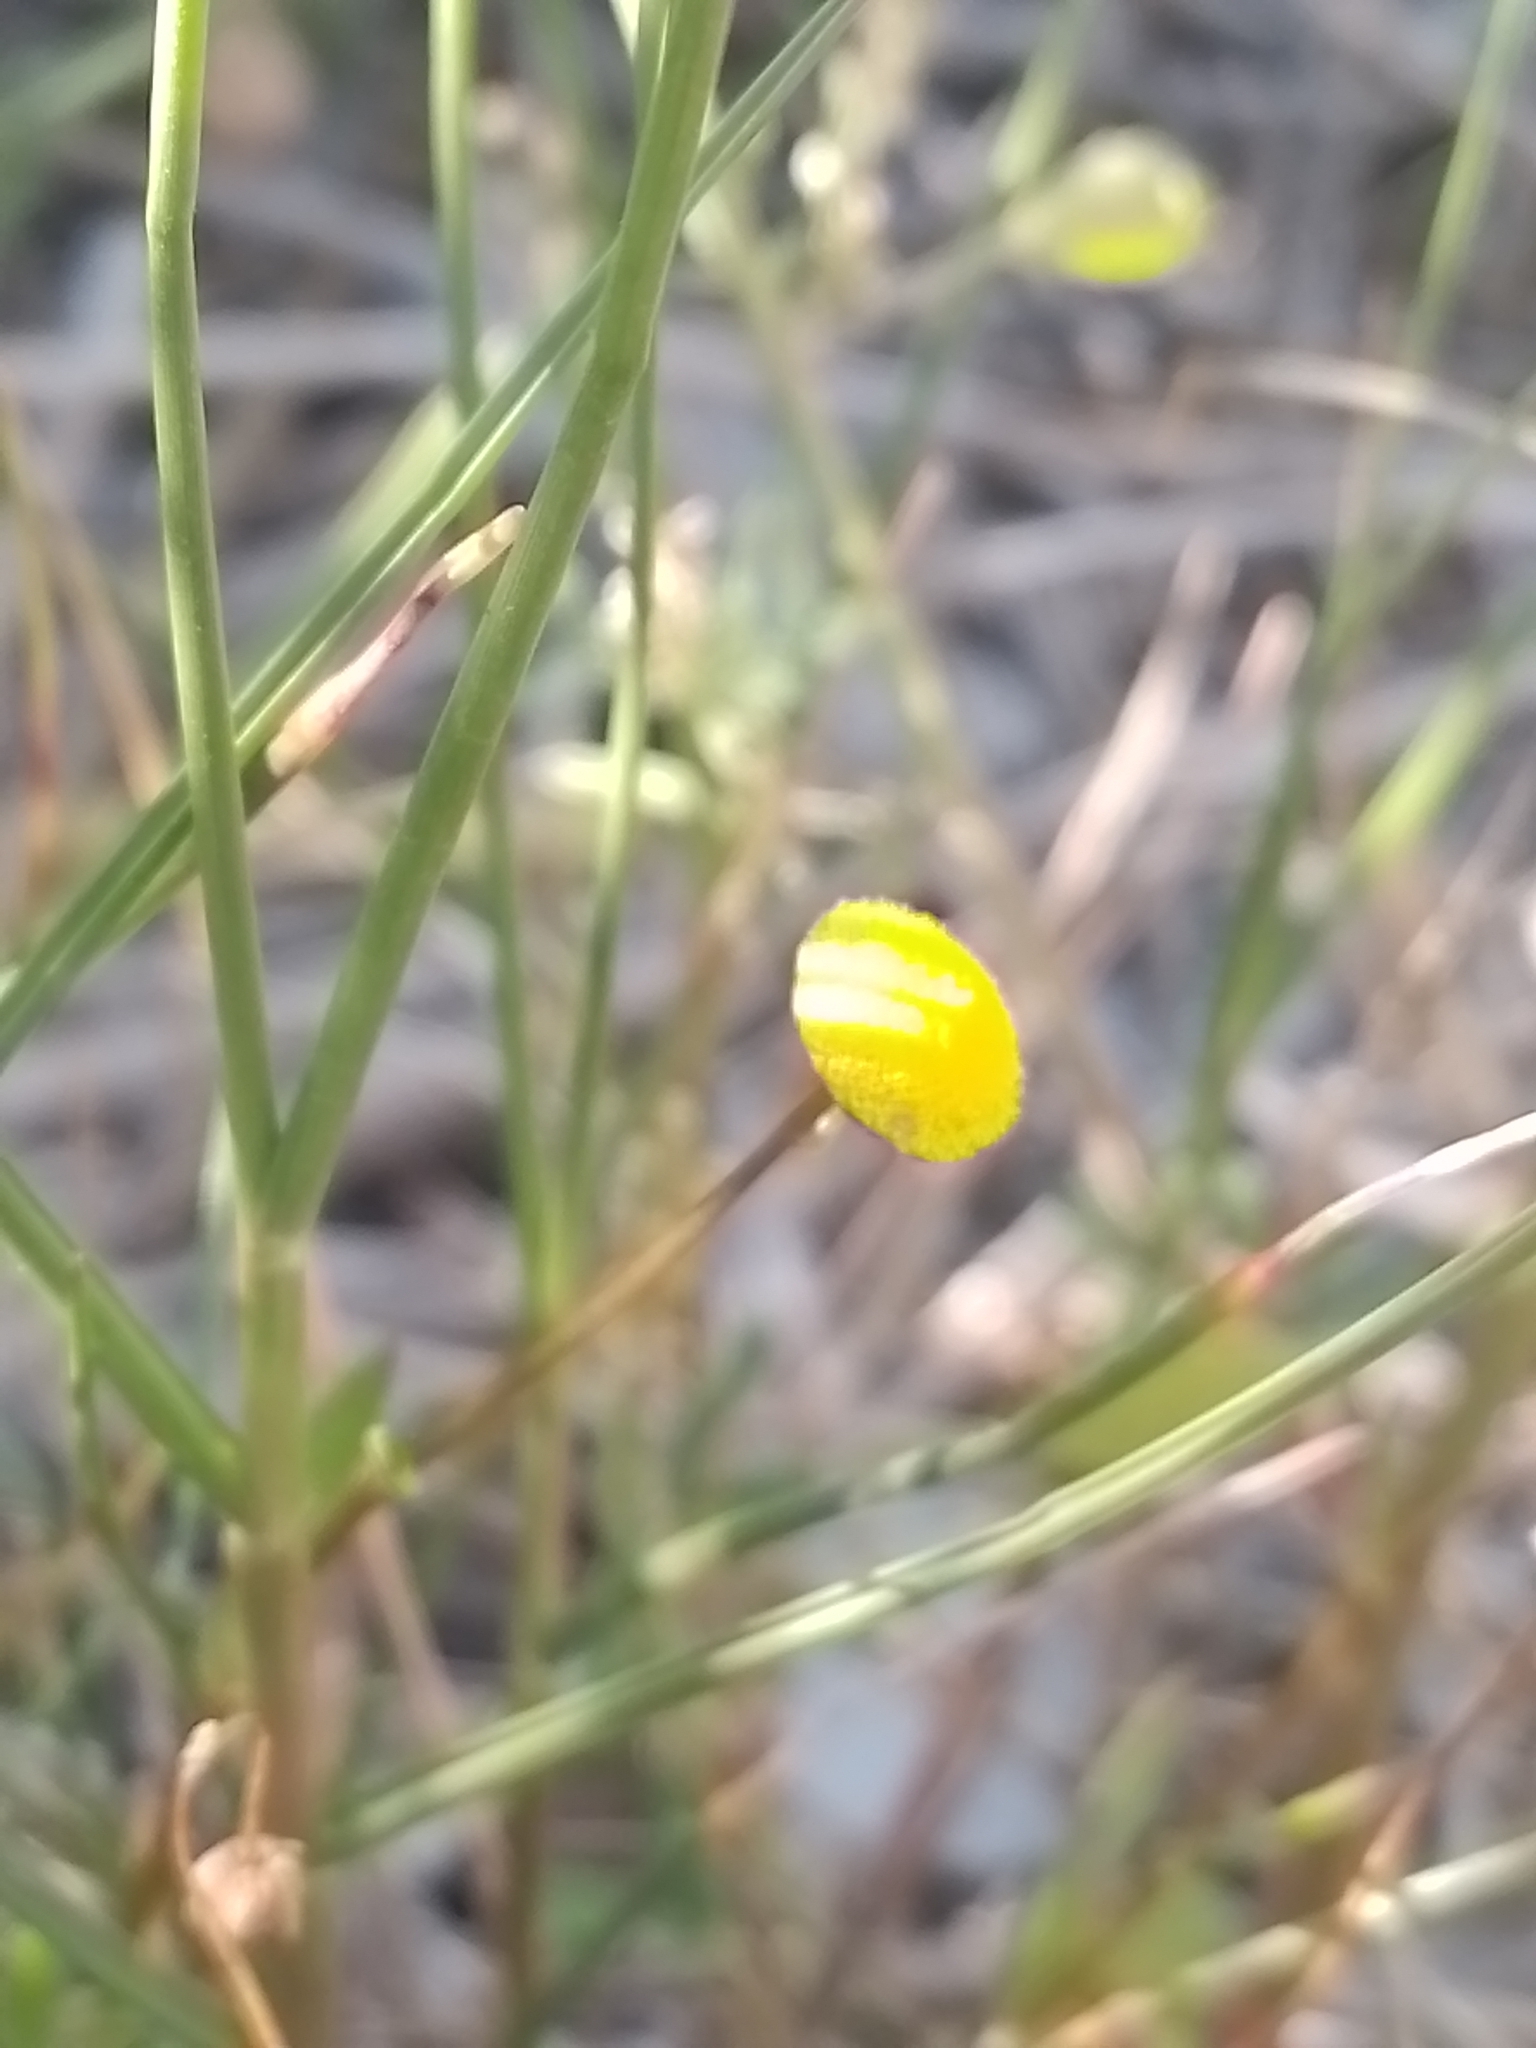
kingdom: Plantae
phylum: Tracheophyta
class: Magnoliopsida
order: Asterales
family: Asteraceae
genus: Cotula
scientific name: Cotula coronopifolia
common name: Buttonweed
